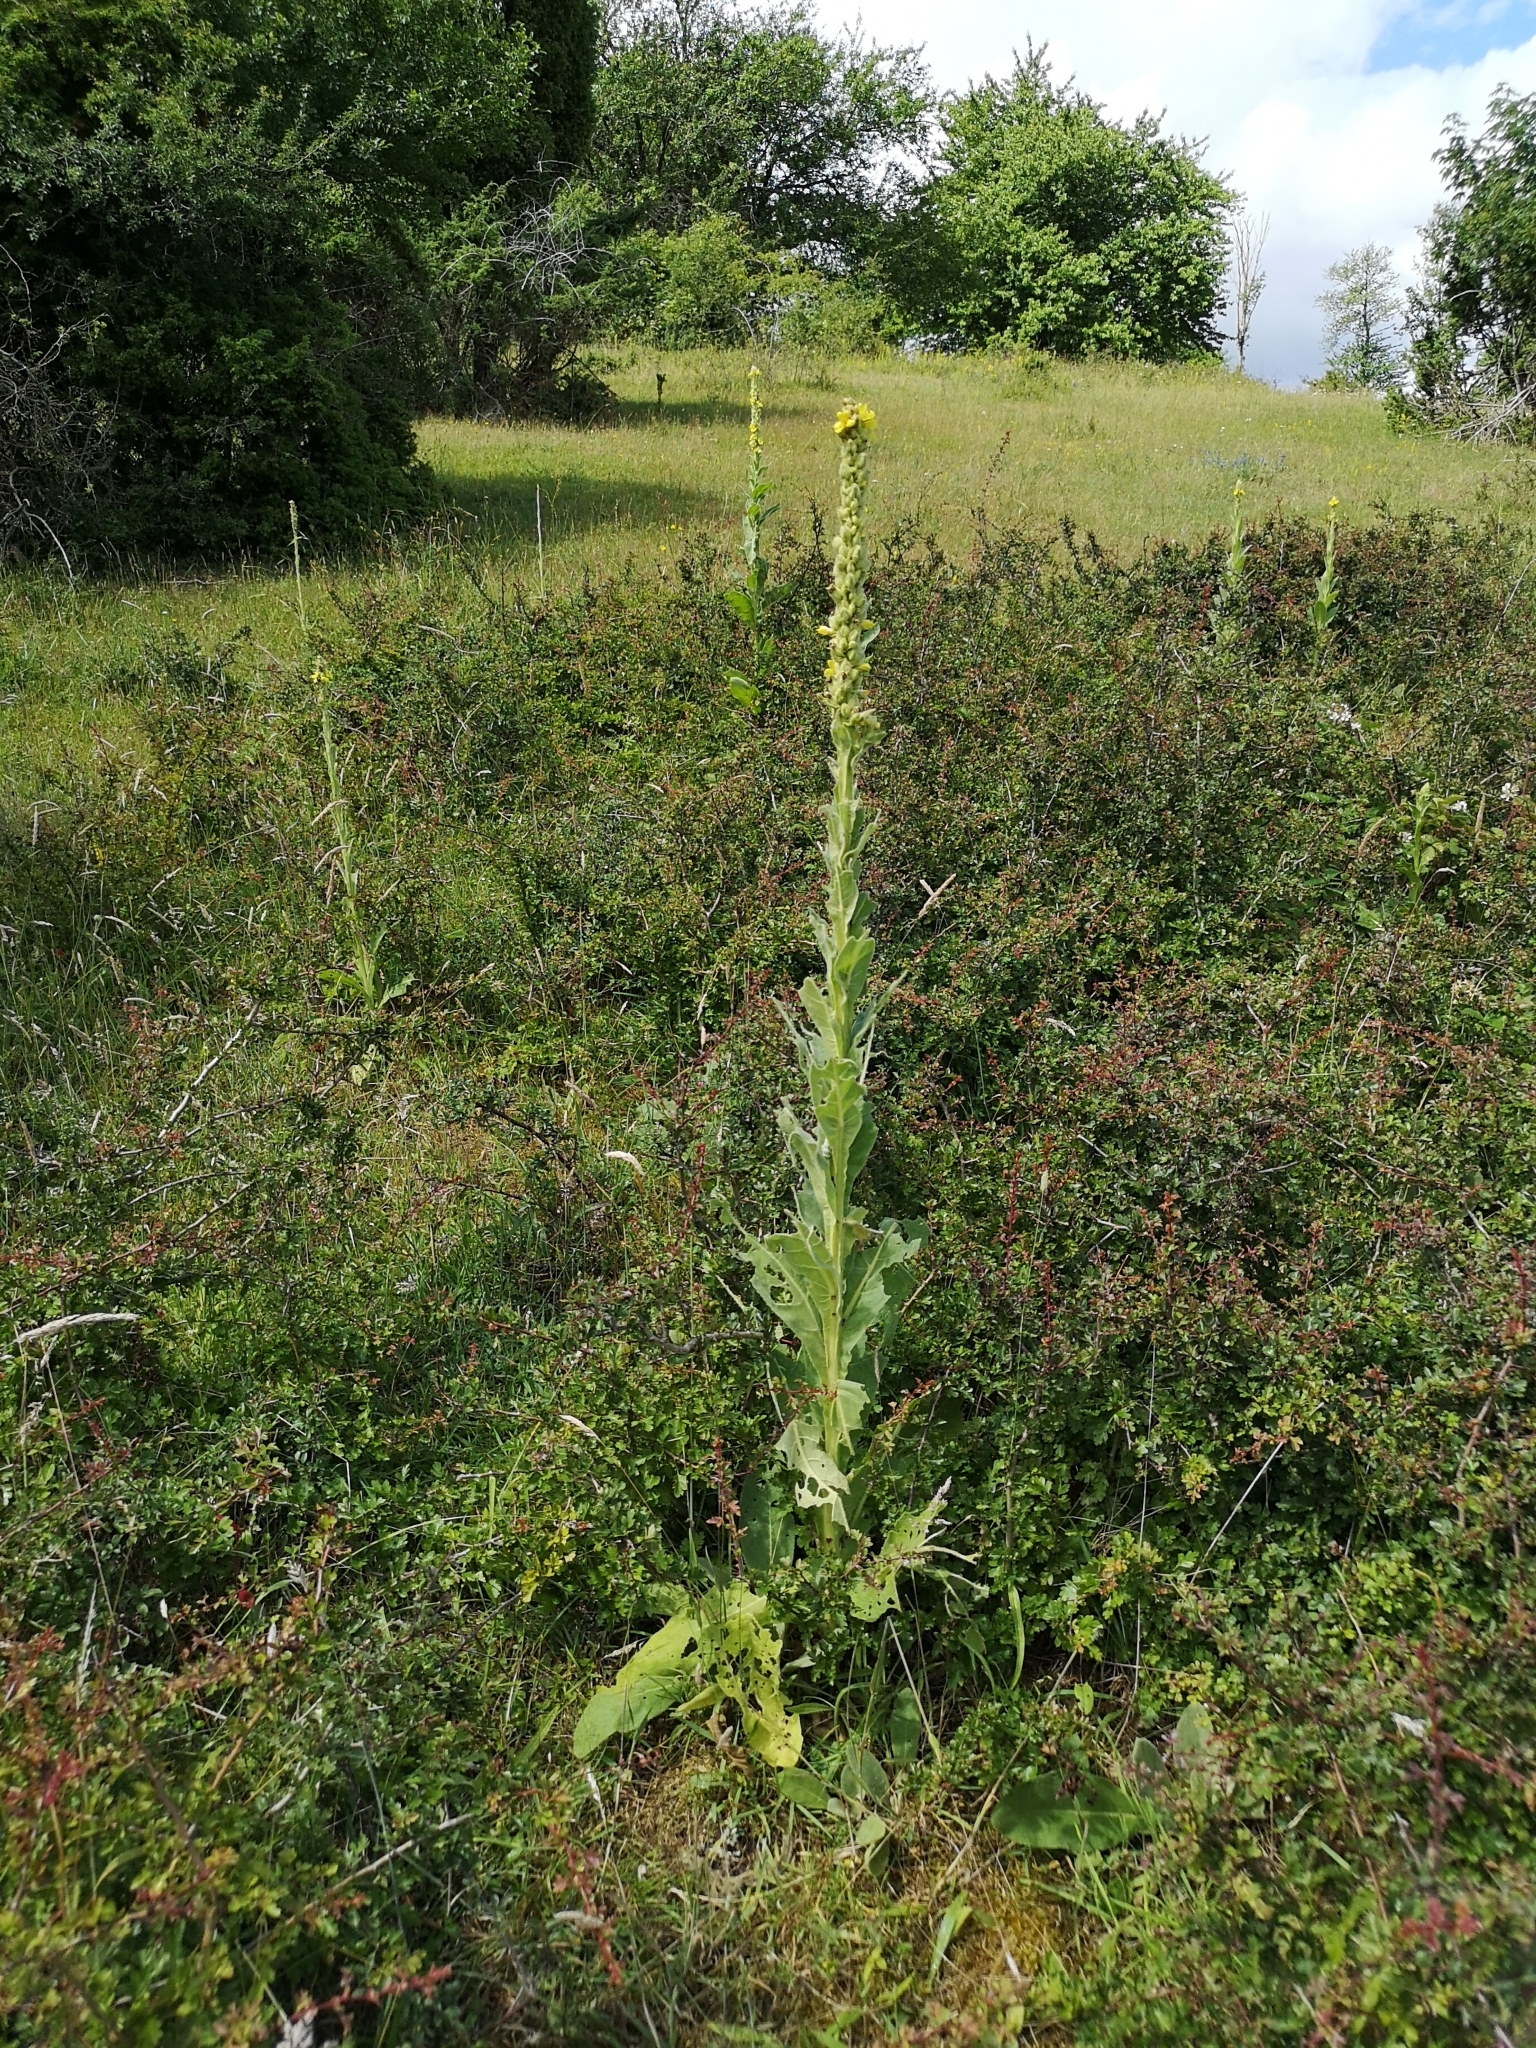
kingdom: Plantae
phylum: Tracheophyta
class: Magnoliopsida
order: Lamiales
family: Scrophulariaceae
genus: Verbascum
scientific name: Verbascum thapsus
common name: Common mullein
